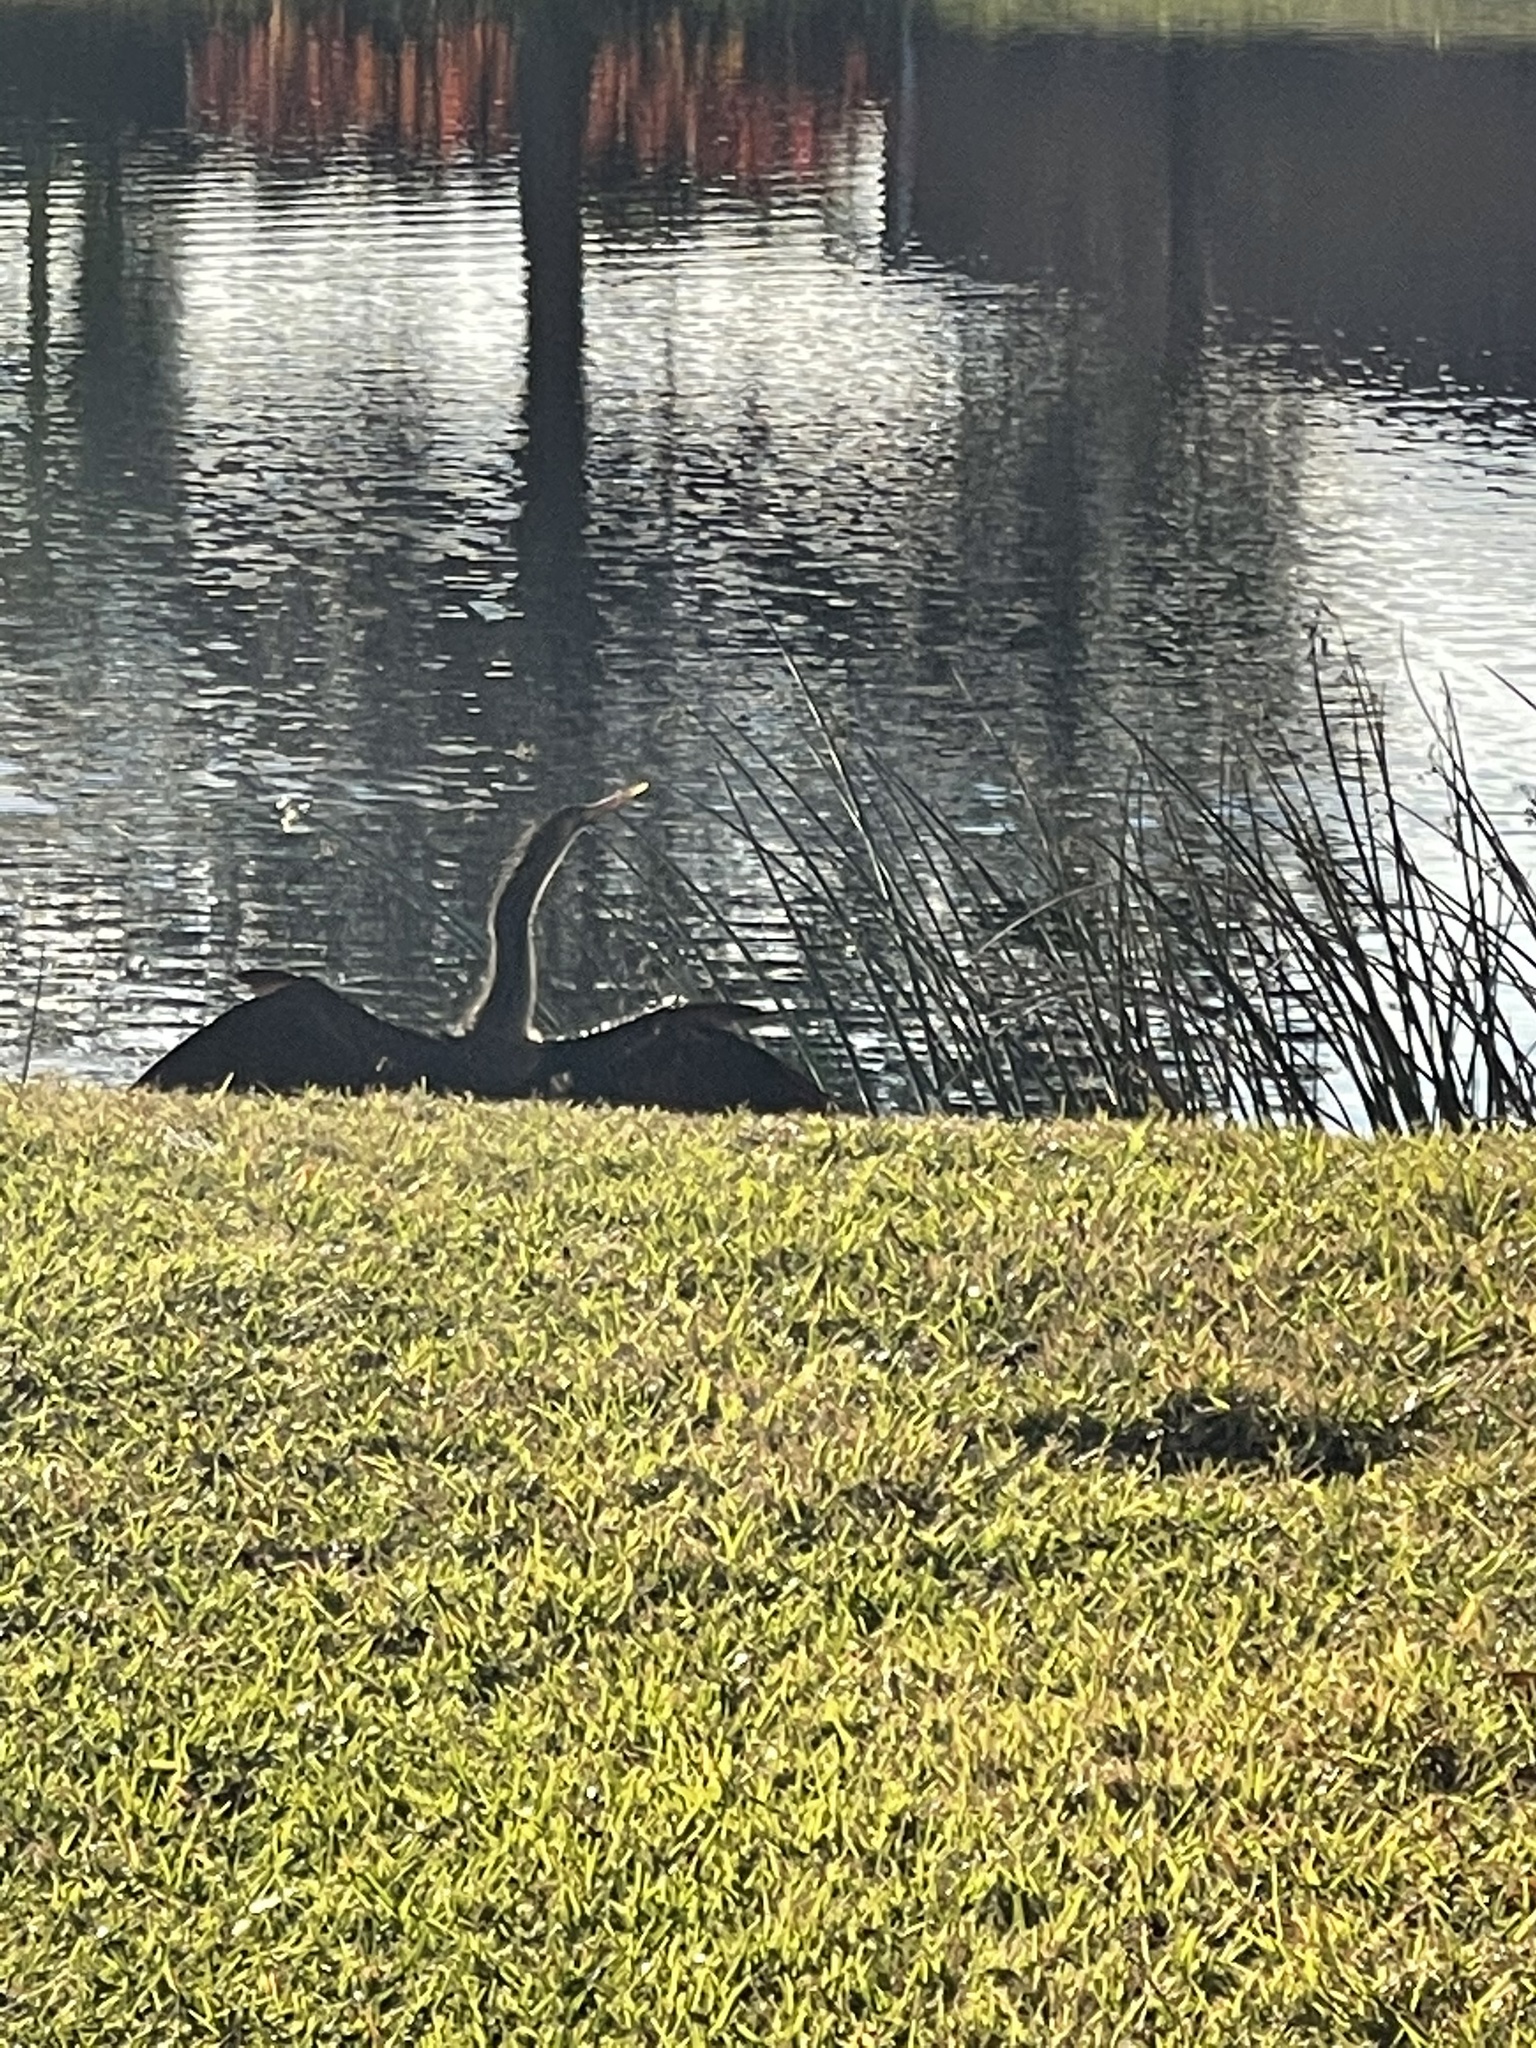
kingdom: Animalia
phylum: Chordata
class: Aves
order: Suliformes
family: Anhingidae
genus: Anhinga
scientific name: Anhinga anhinga
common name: Anhinga
